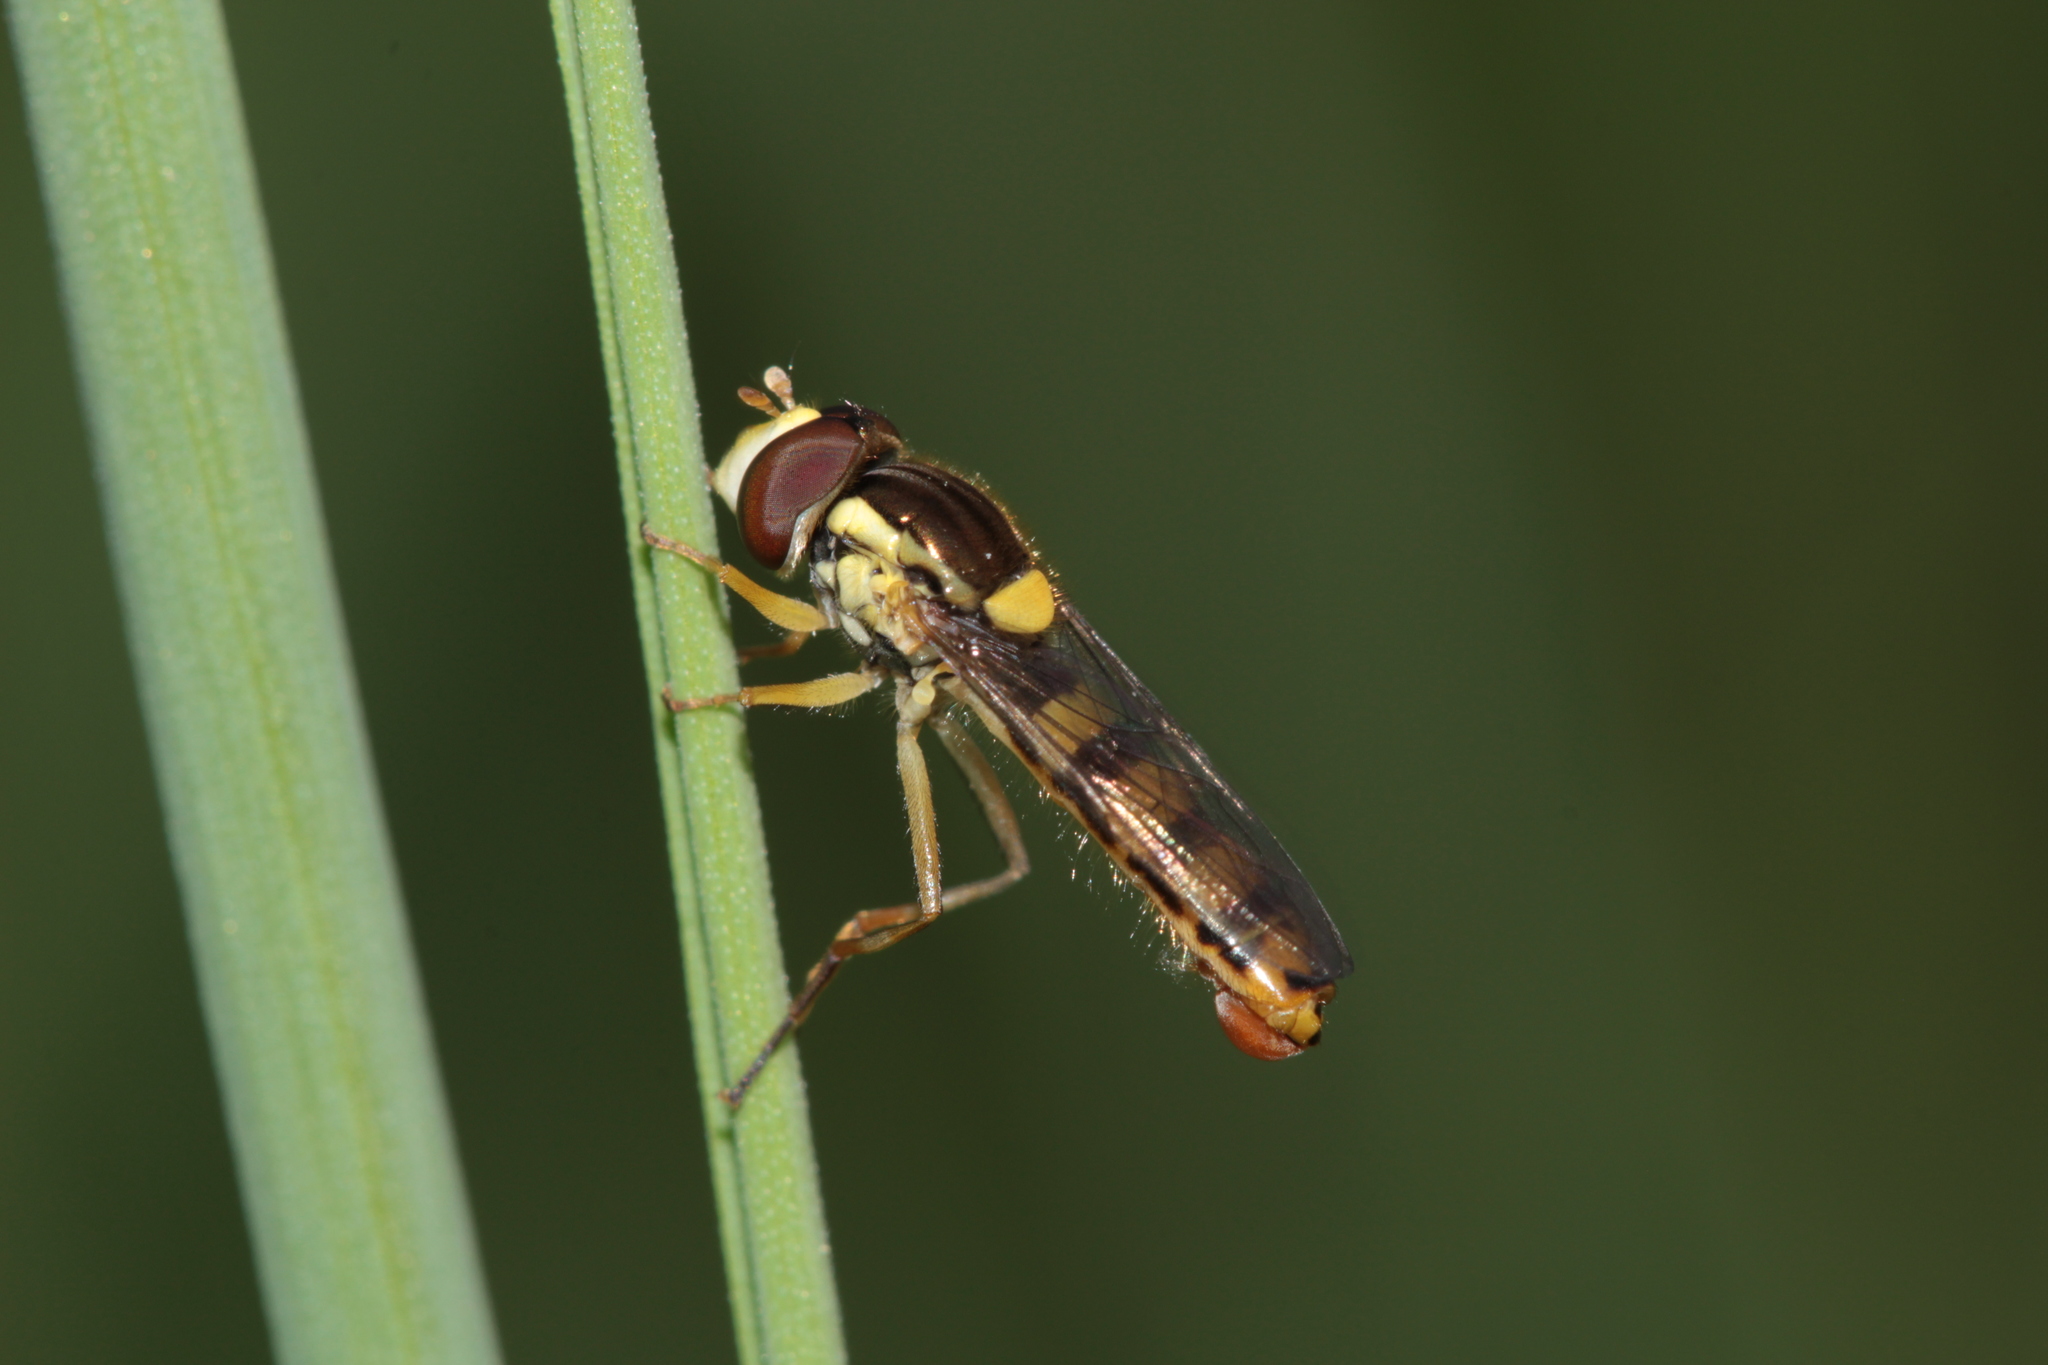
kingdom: Animalia
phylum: Arthropoda
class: Insecta
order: Diptera
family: Syrphidae
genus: Sphaerophoria
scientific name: Sphaerophoria
